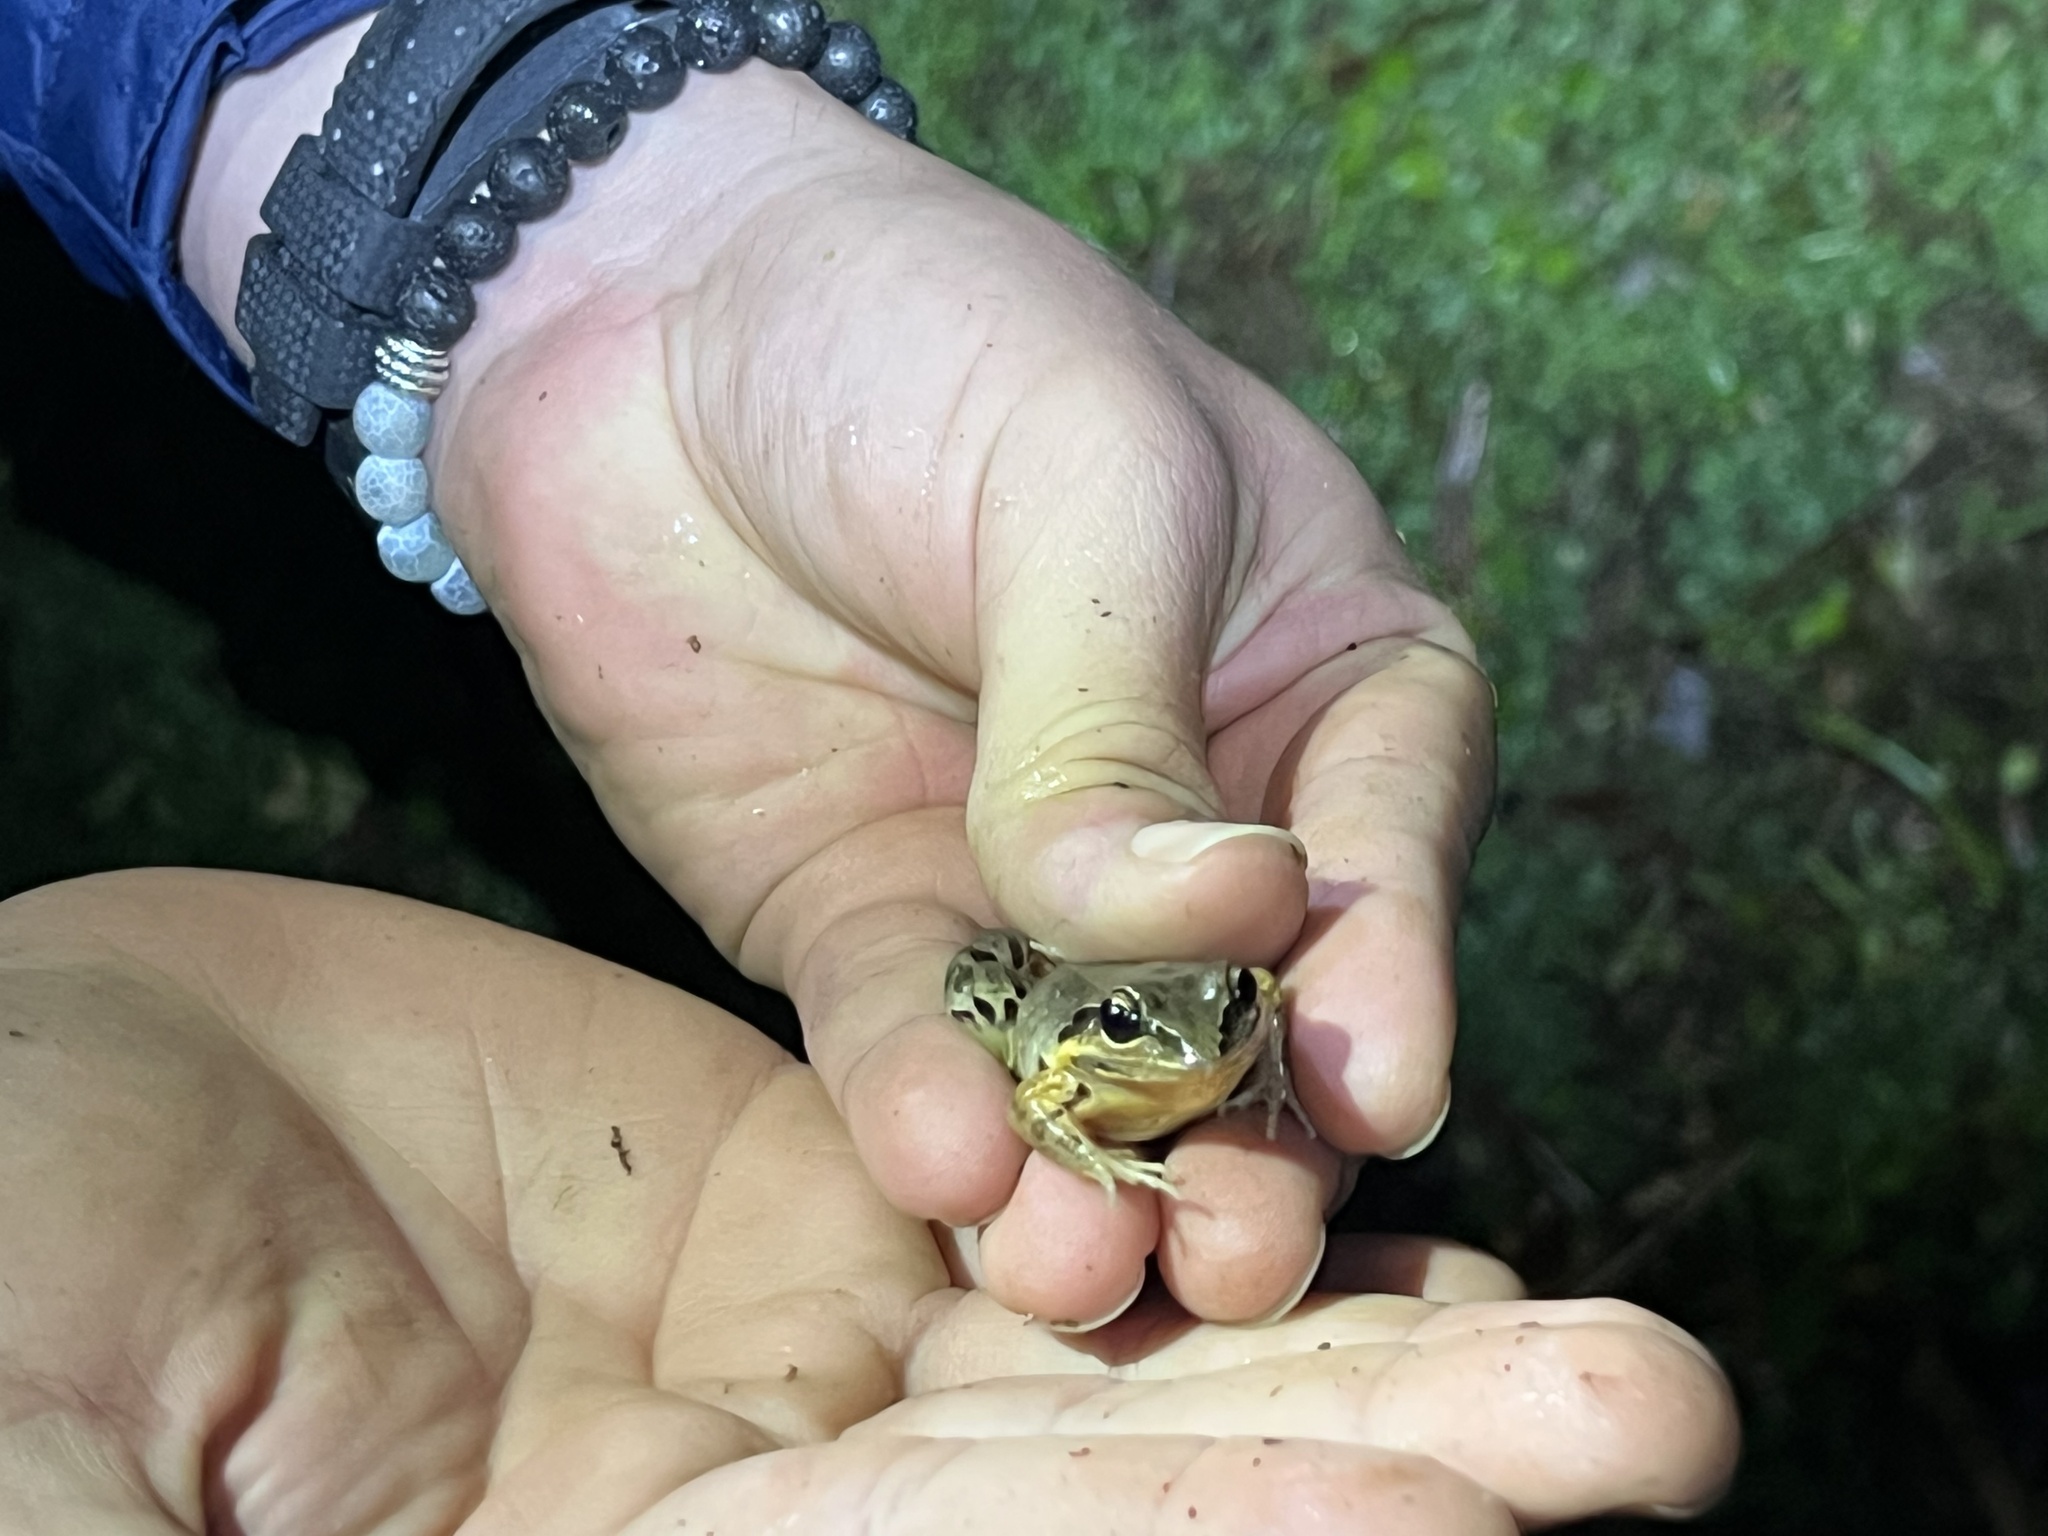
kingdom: Animalia
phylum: Chordata
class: Amphibia
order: Anura
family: Leptodactylidae
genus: Leptodactylus
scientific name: Leptodactylus albilabris
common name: Caribbean white-lipped frog
